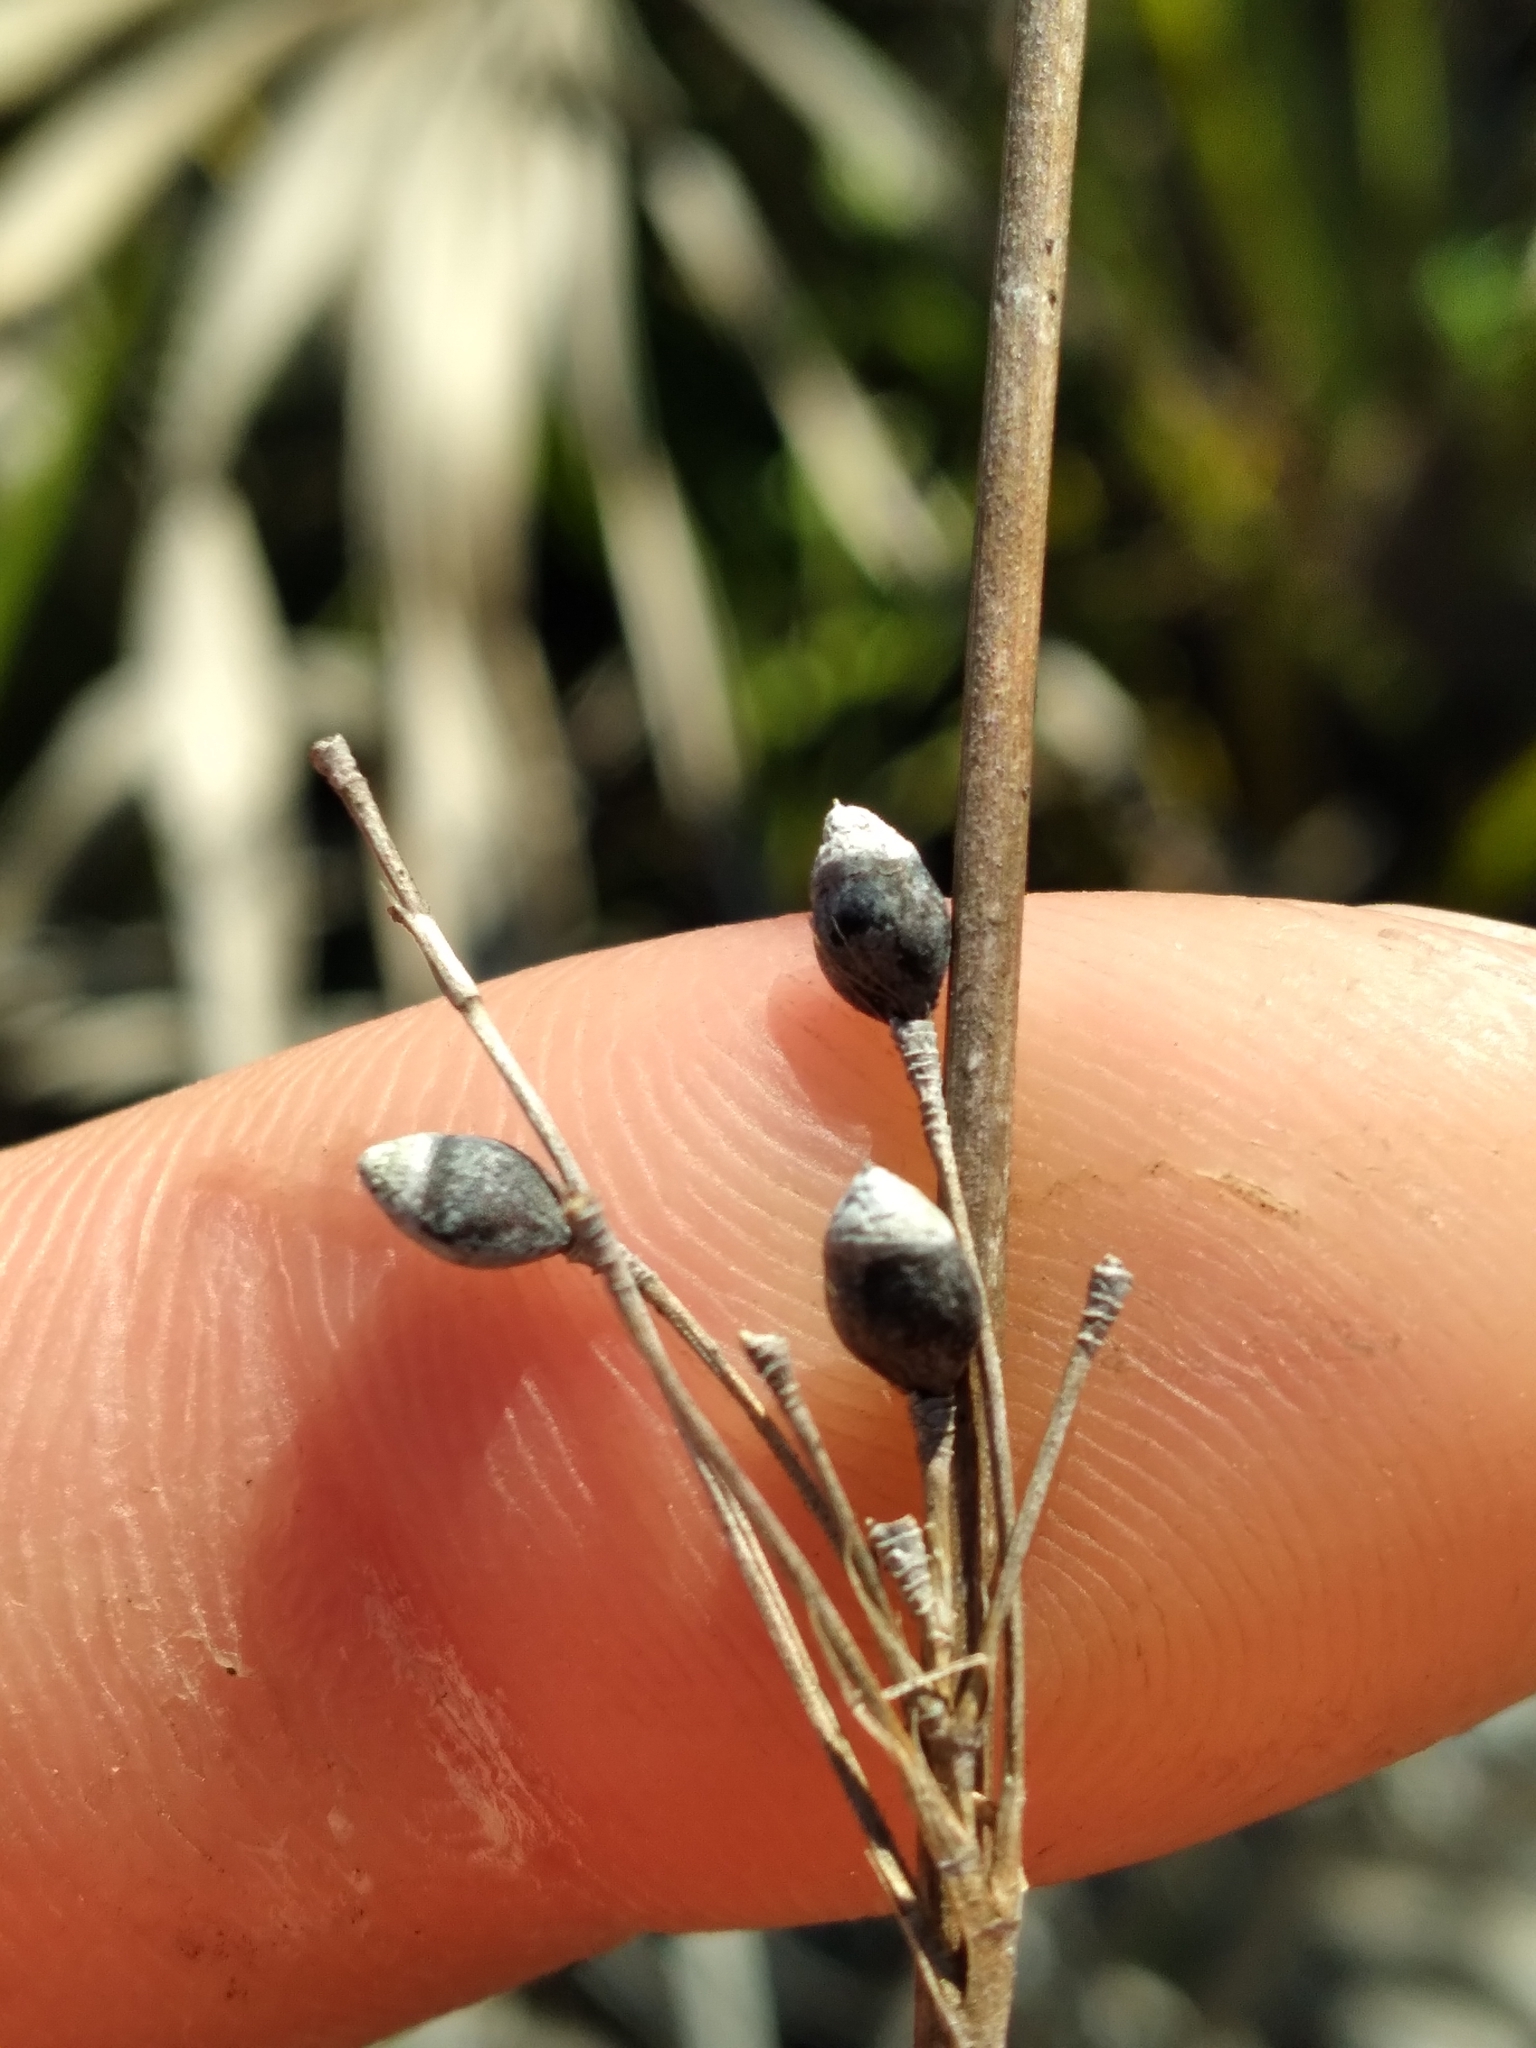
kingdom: Plantae
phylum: Tracheophyta
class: Liliopsida
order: Poales
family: Cyperaceae
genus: Rhynchospora
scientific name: Rhynchospora megalocarpa
